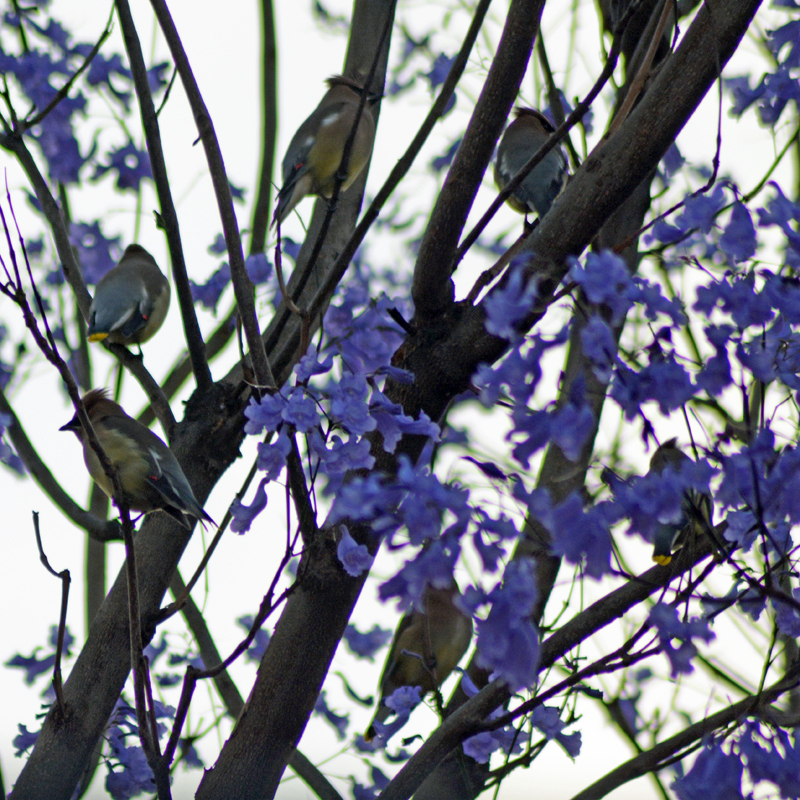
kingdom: Animalia
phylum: Chordata
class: Aves
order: Passeriformes
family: Bombycillidae
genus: Bombycilla
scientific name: Bombycilla cedrorum
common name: Cedar waxwing
